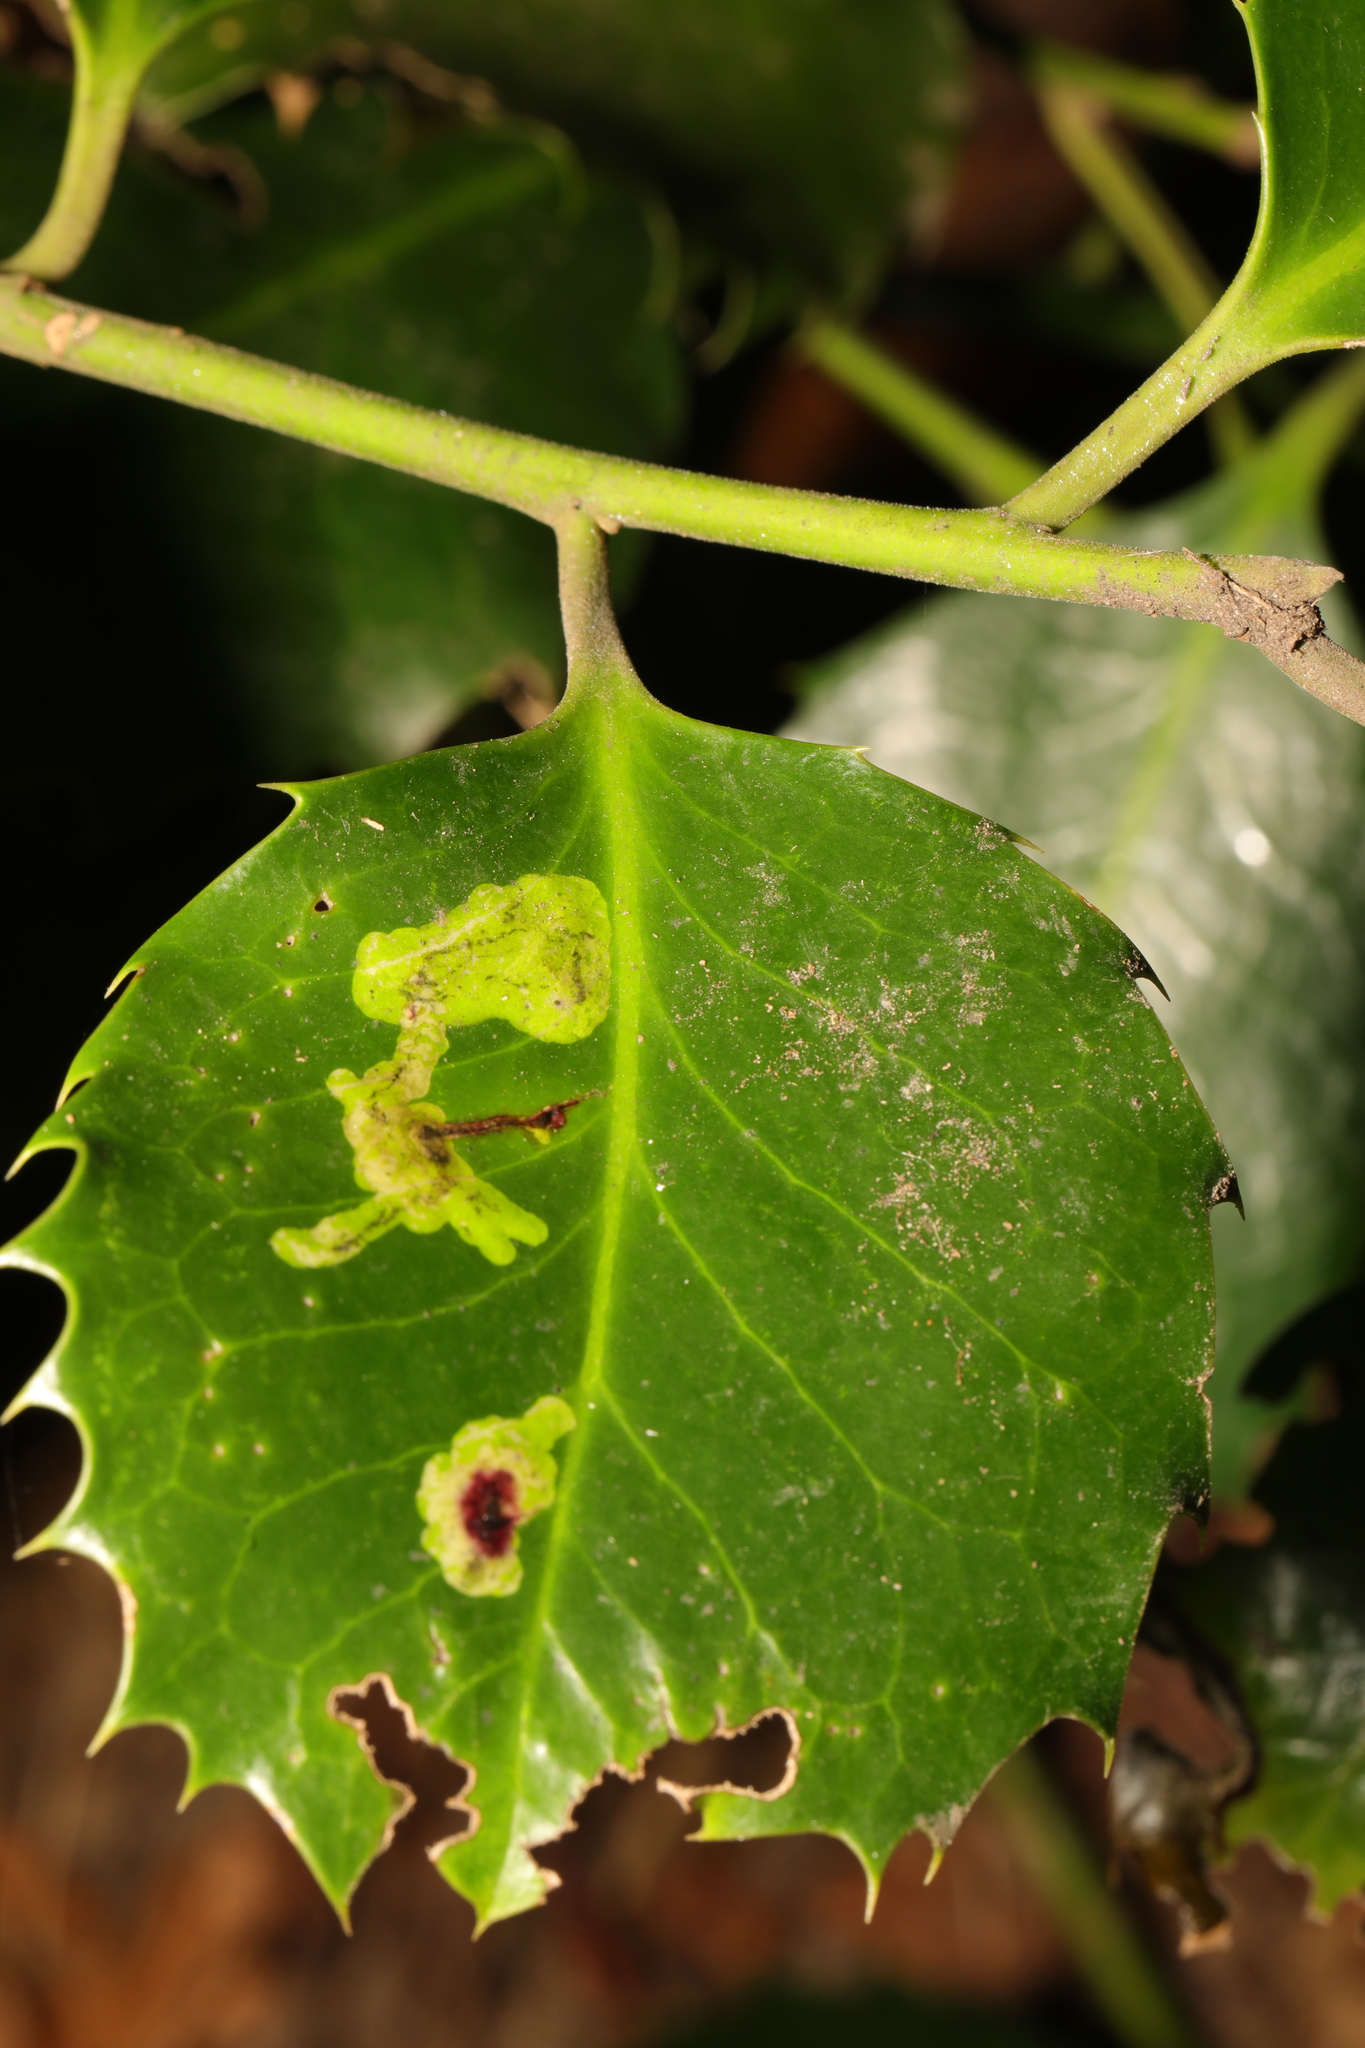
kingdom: Animalia
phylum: Arthropoda
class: Insecta
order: Diptera
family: Agromyzidae
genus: Phytomyza
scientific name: Phytomyza ilicis
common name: Holly leafminer
